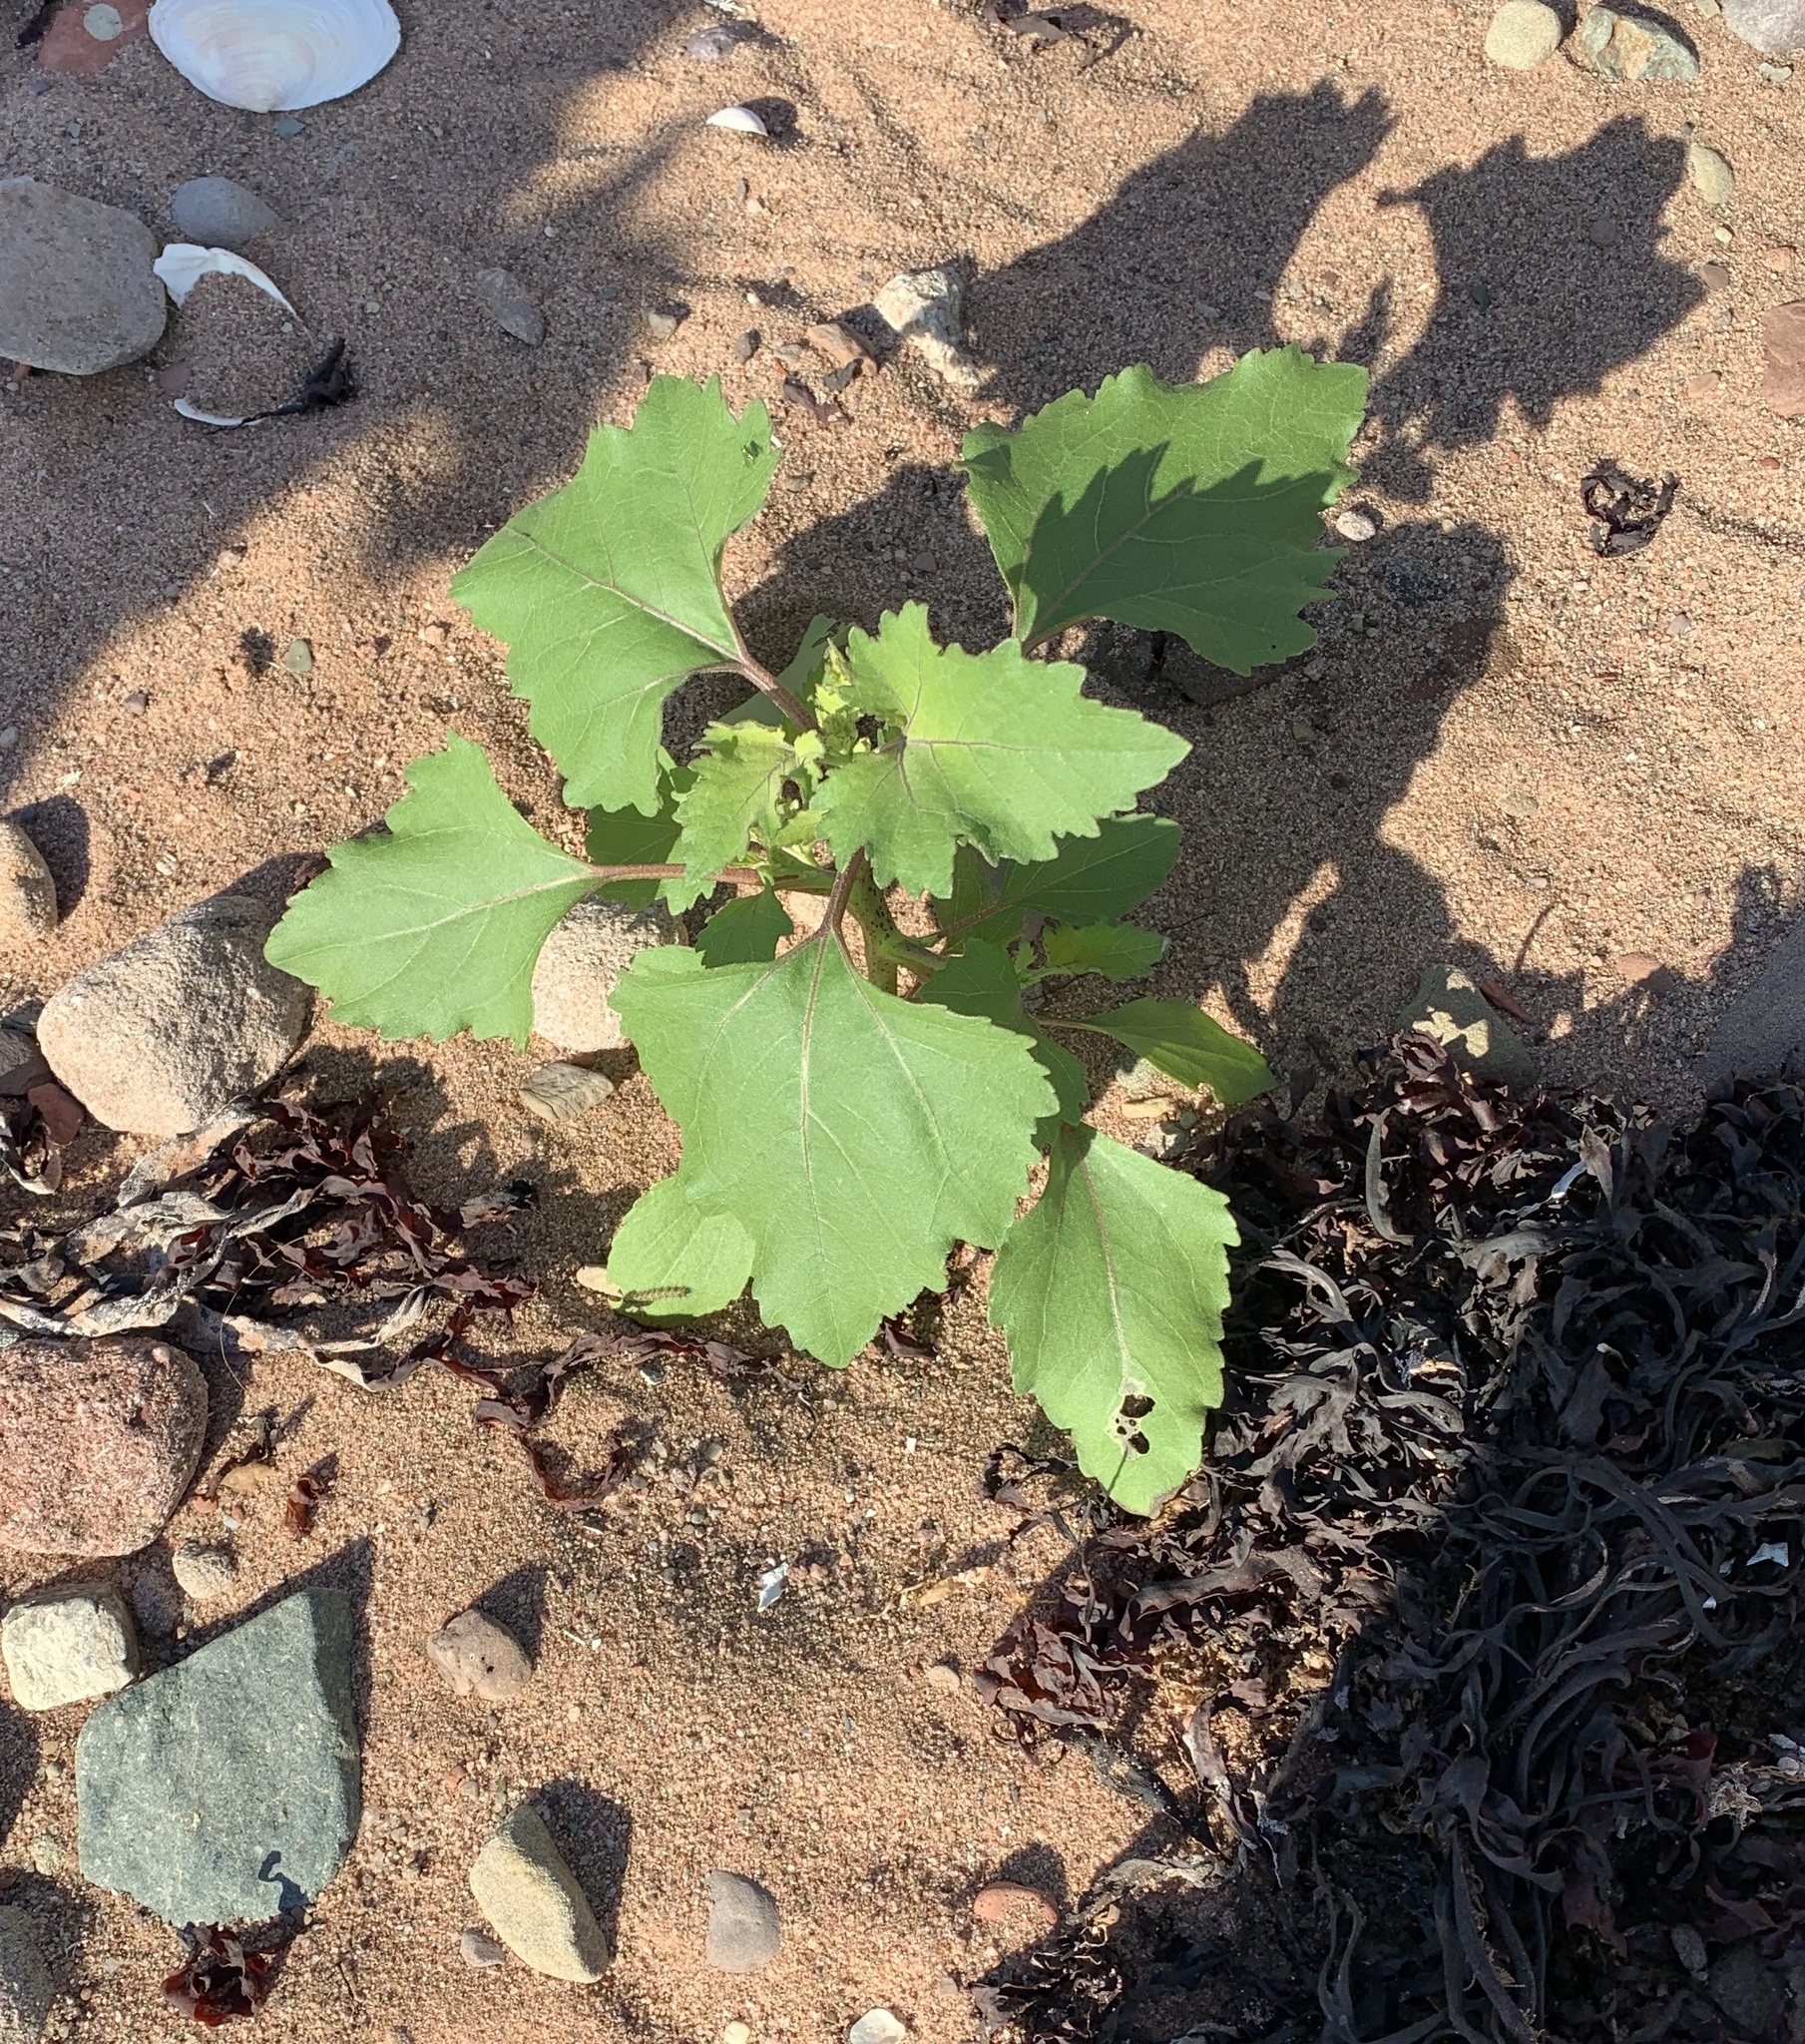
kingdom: Plantae
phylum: Tracheophyta
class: Magnoliopsida
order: Asterales
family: Asteraceae
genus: Xanthium
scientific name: Xanthium strumarium
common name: Rough cocklebur
